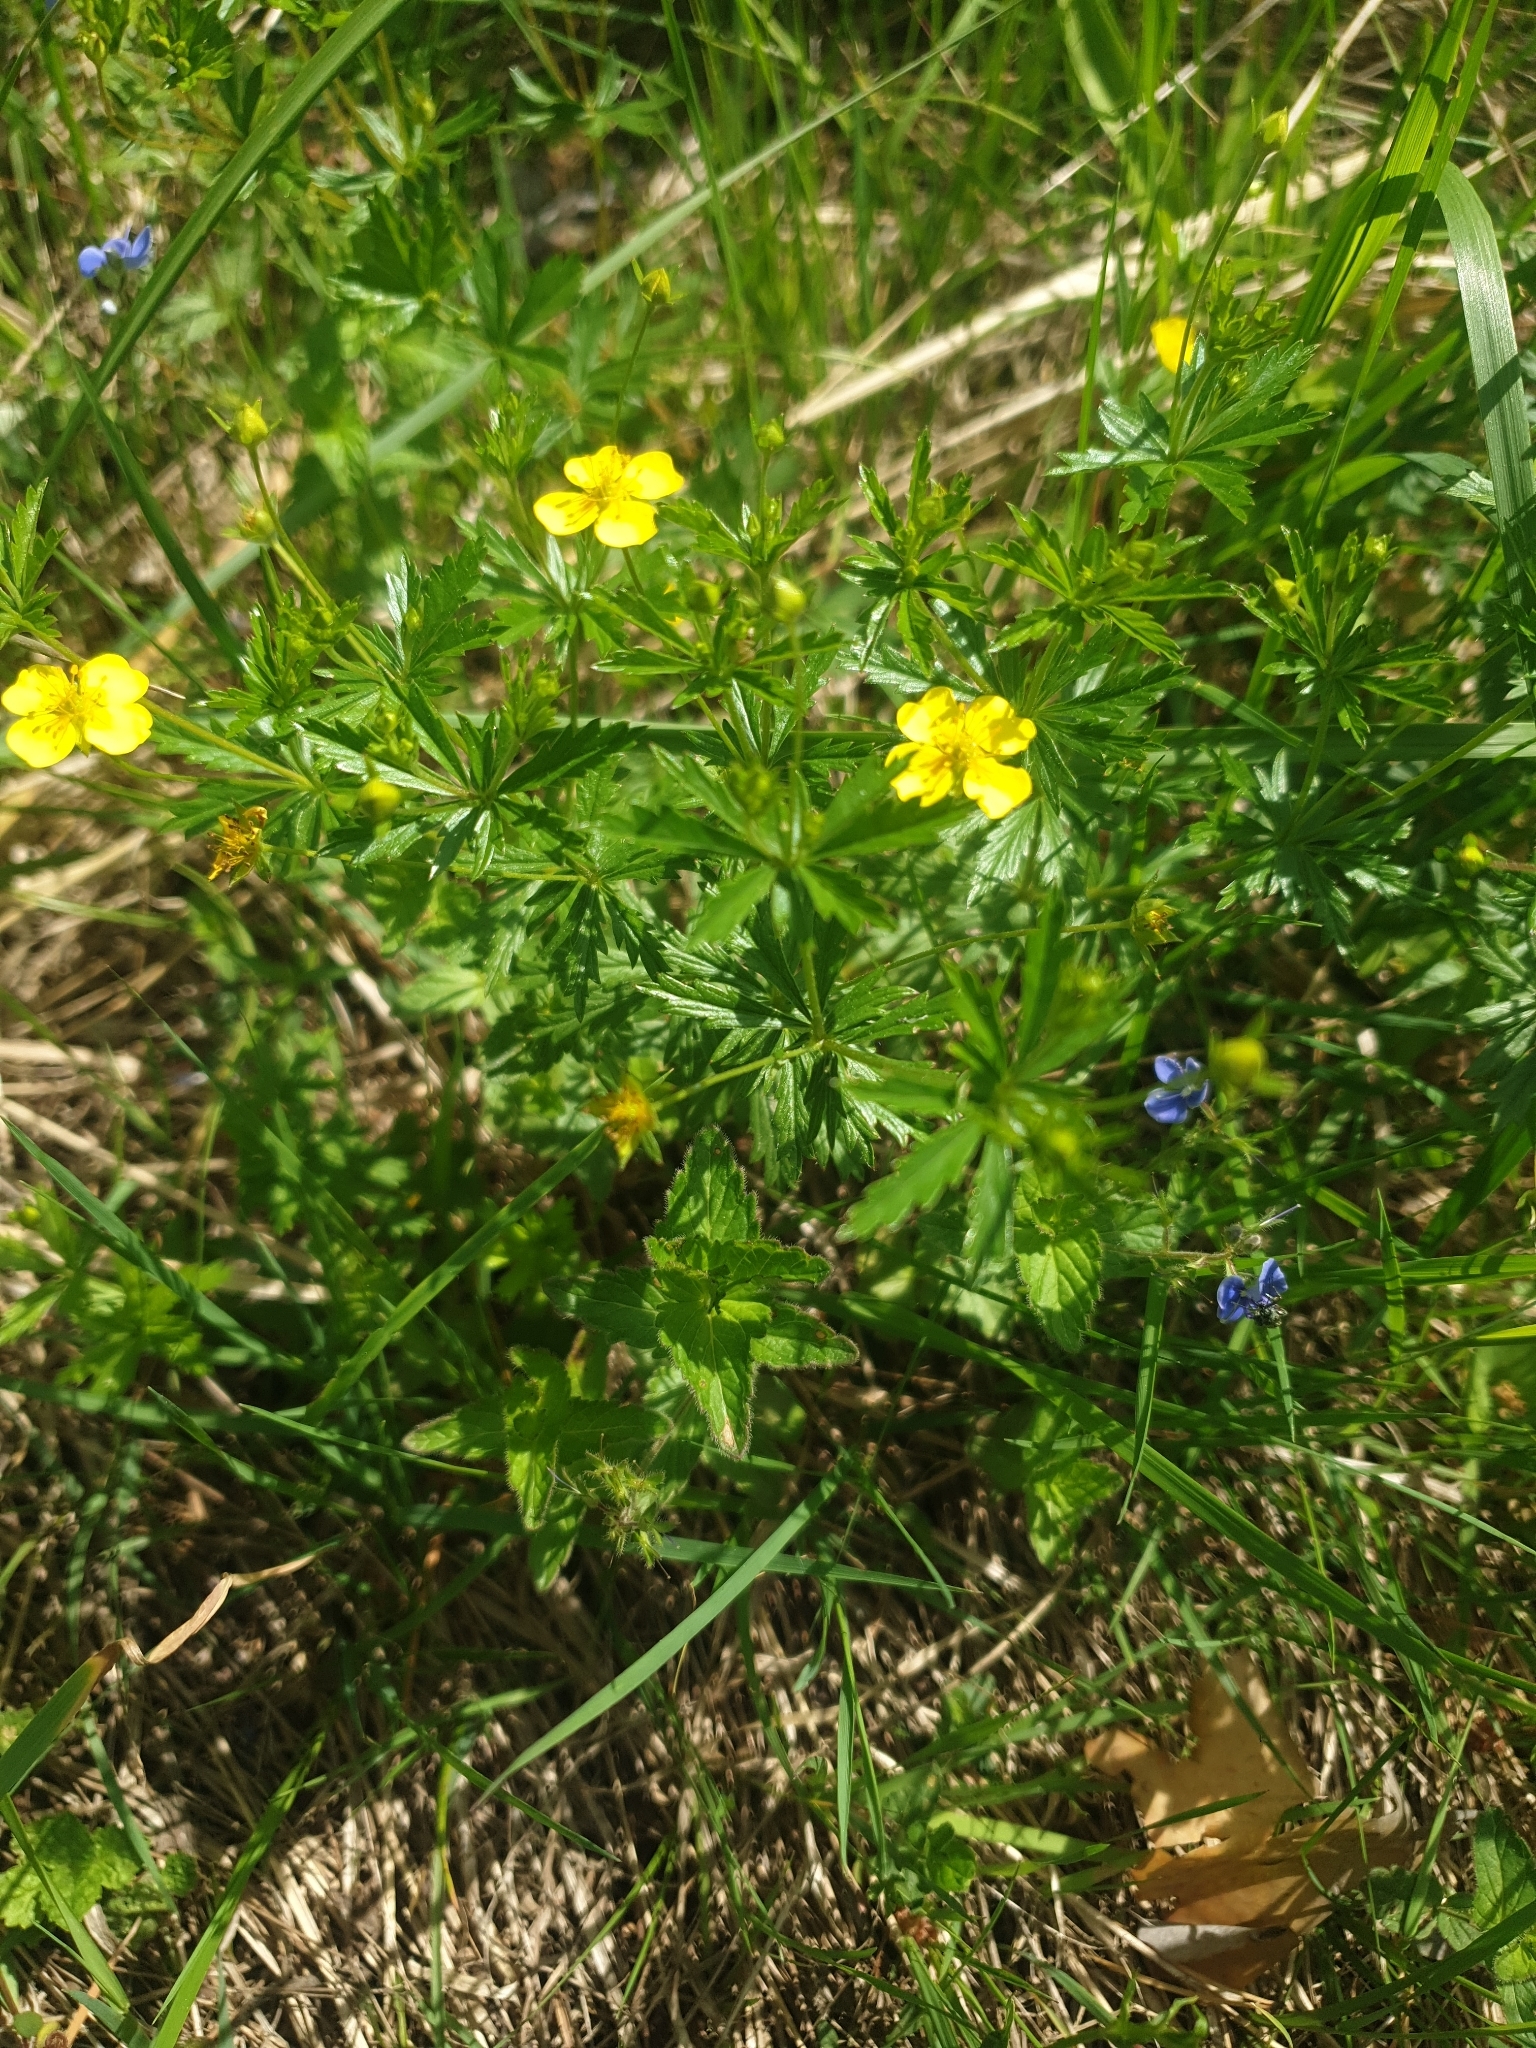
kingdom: Plantae
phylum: Tracheophyta
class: Magnoliopsida
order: Rosales
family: Rosaceae
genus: Potentilla
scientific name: Potentilla erecta
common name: Tormentil
